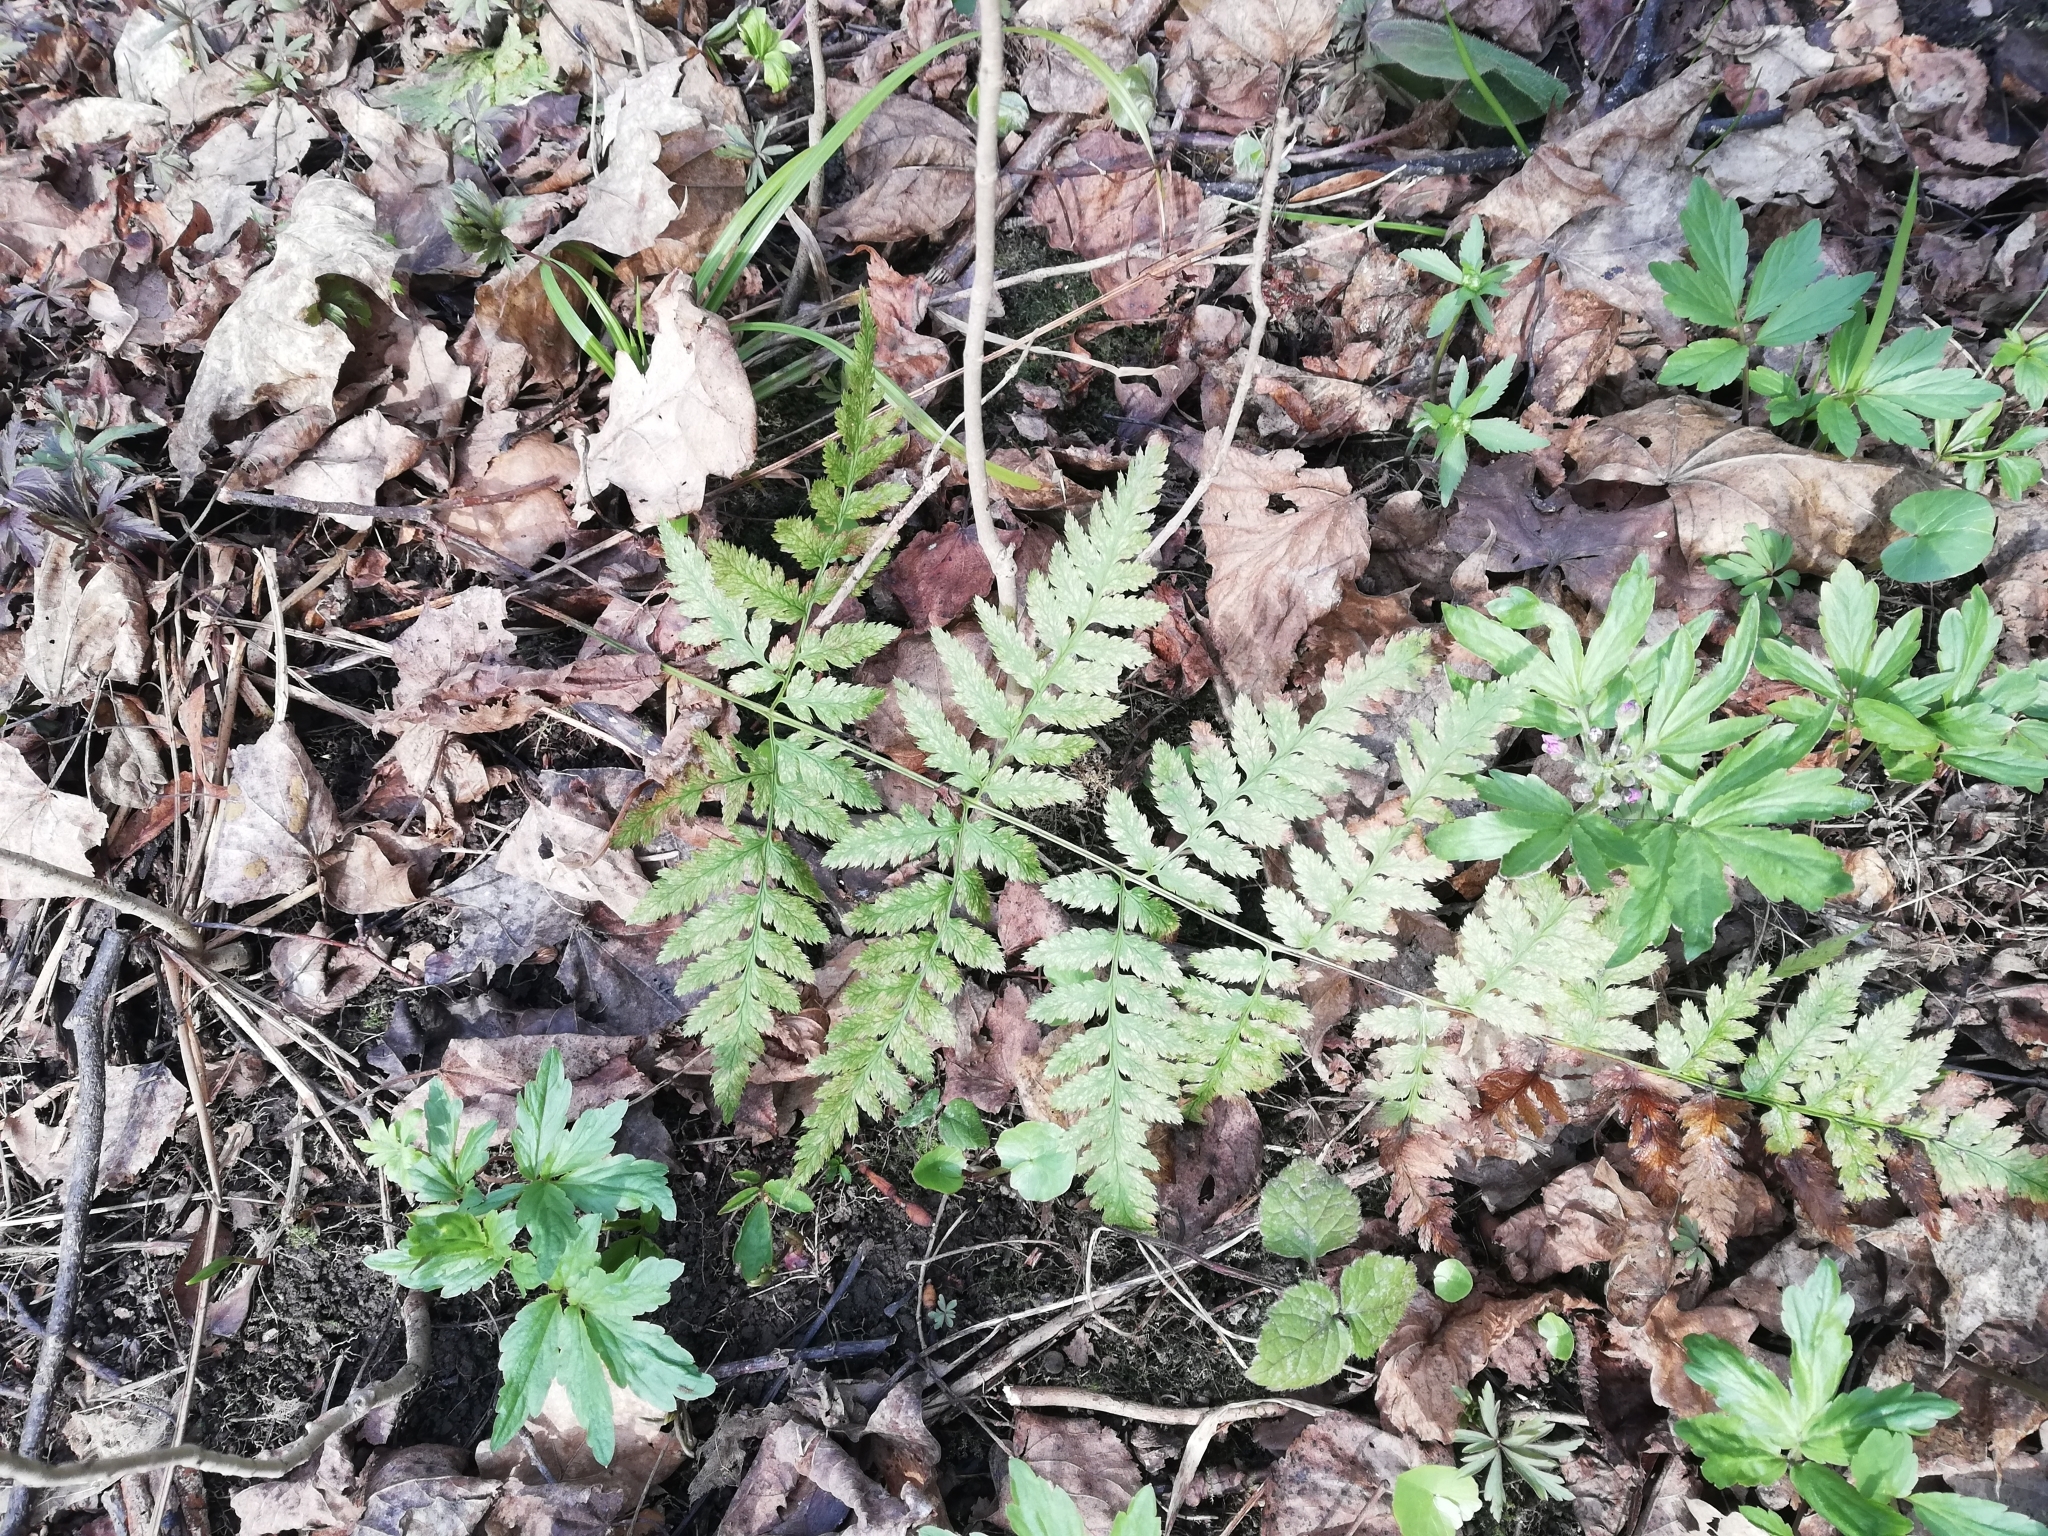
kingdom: Plantae
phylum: Tracheophyta
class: Polypodiopsida
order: Polypodiales
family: Dryopteridaceae
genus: Dryopteris
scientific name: Dryopteris carthusiana
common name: Narrow buckler-fern
